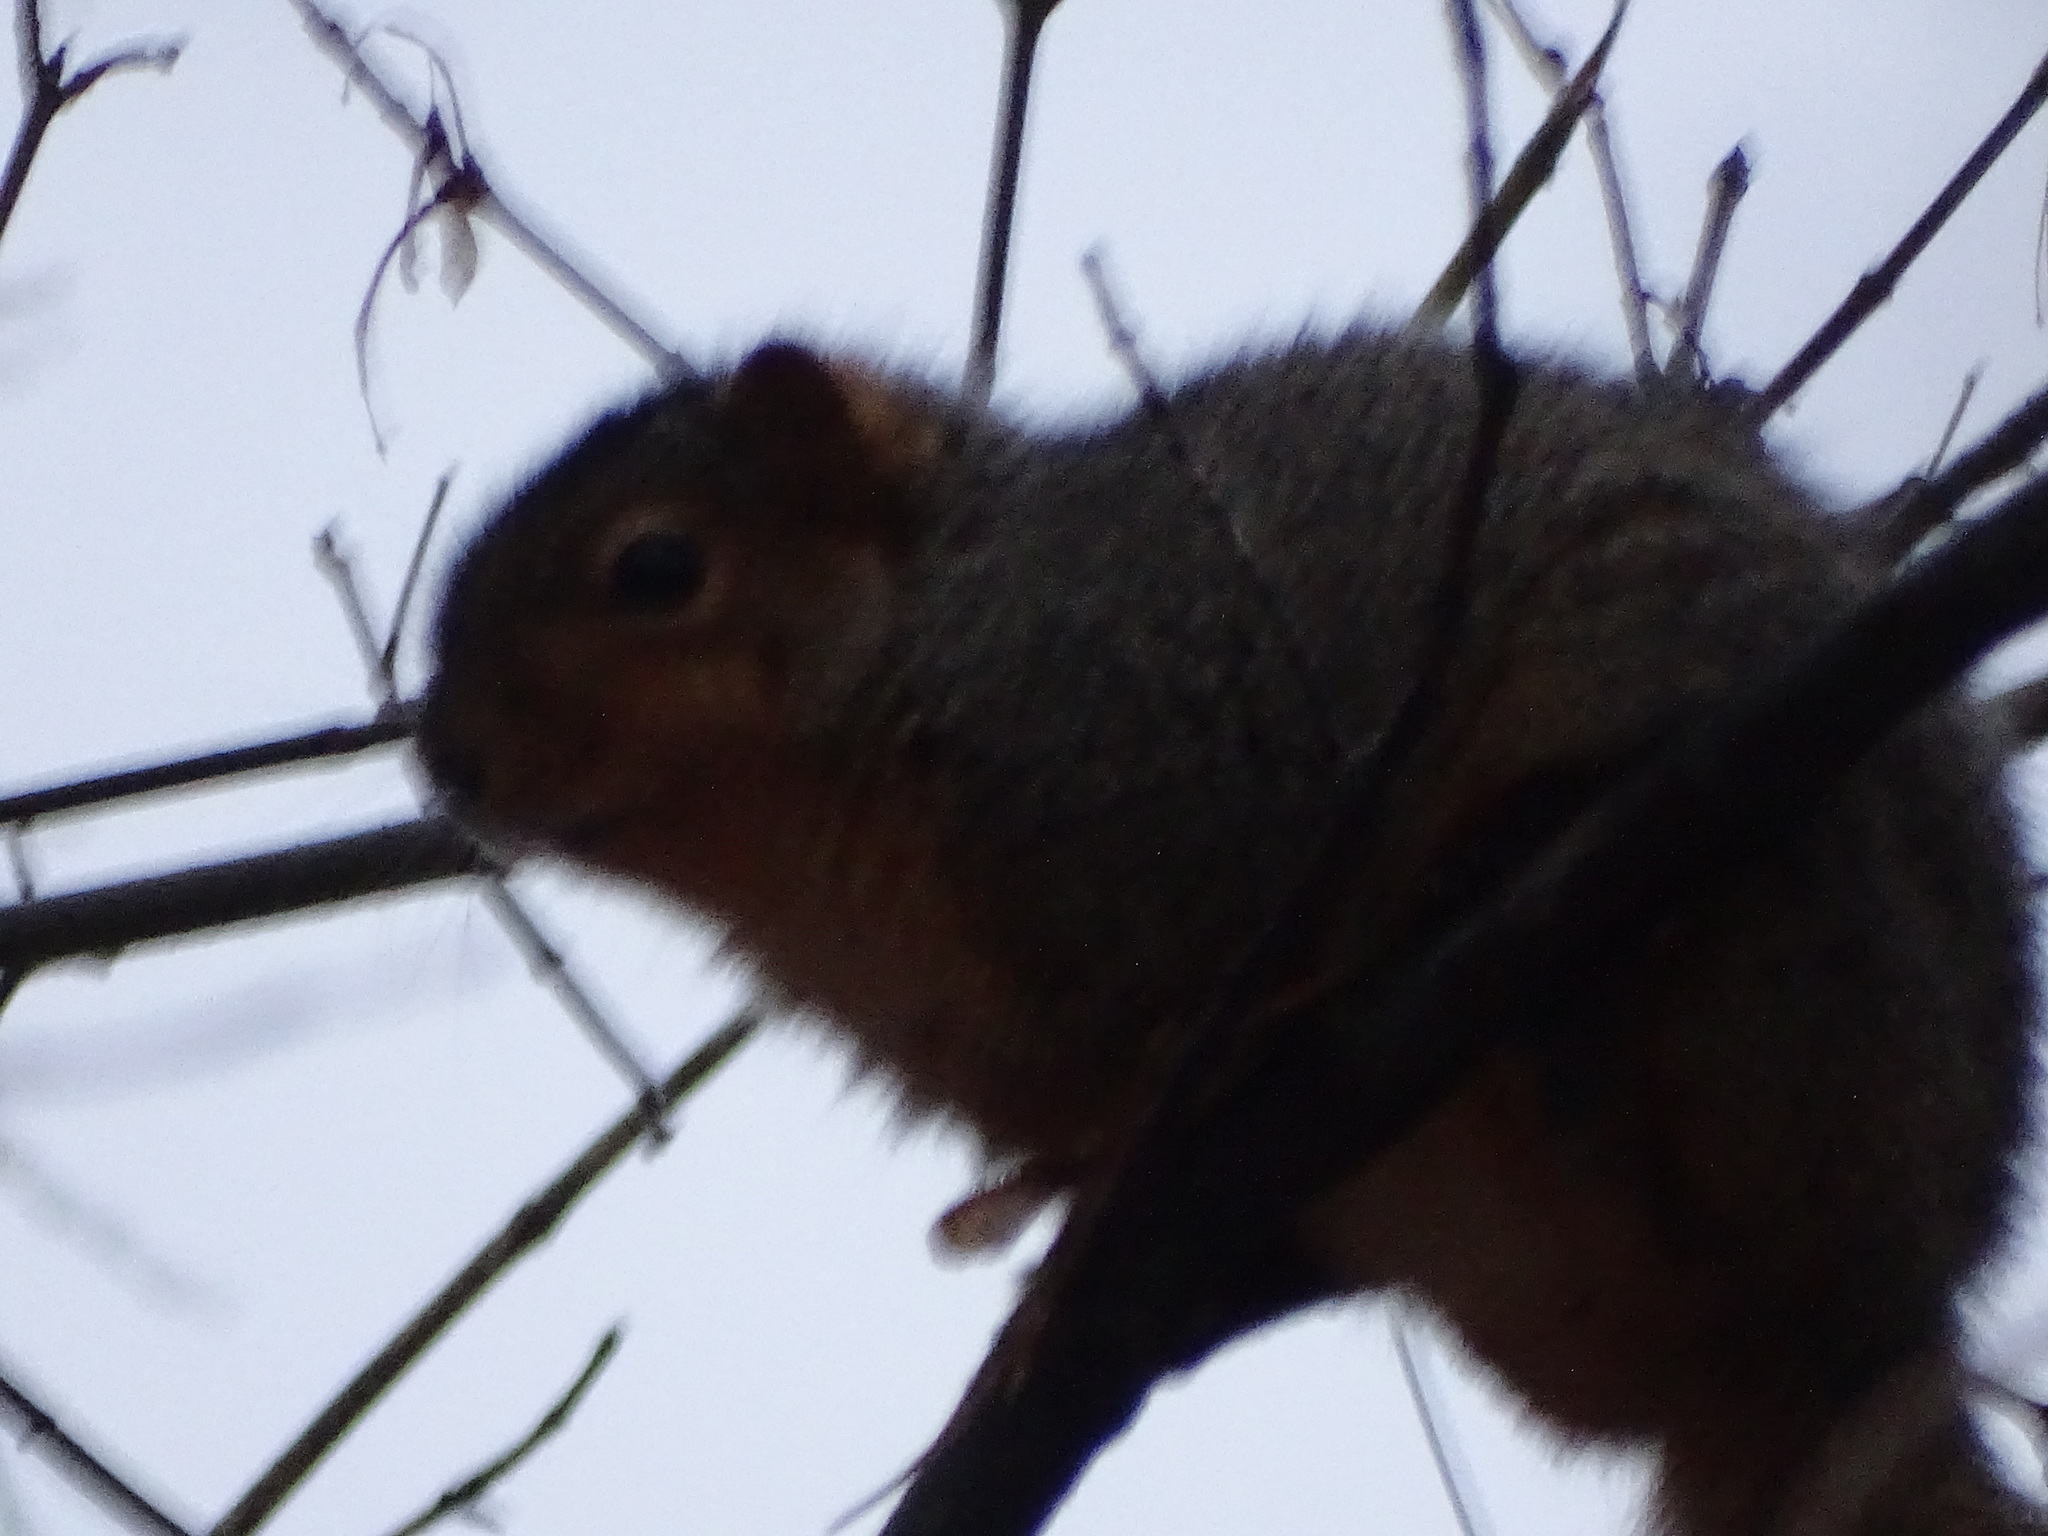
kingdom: Animalia
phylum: Chordata
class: Mammalia
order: Rodentia
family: Sciuridae
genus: Sciurus
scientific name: Sciurus niger
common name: Fox squirrel
